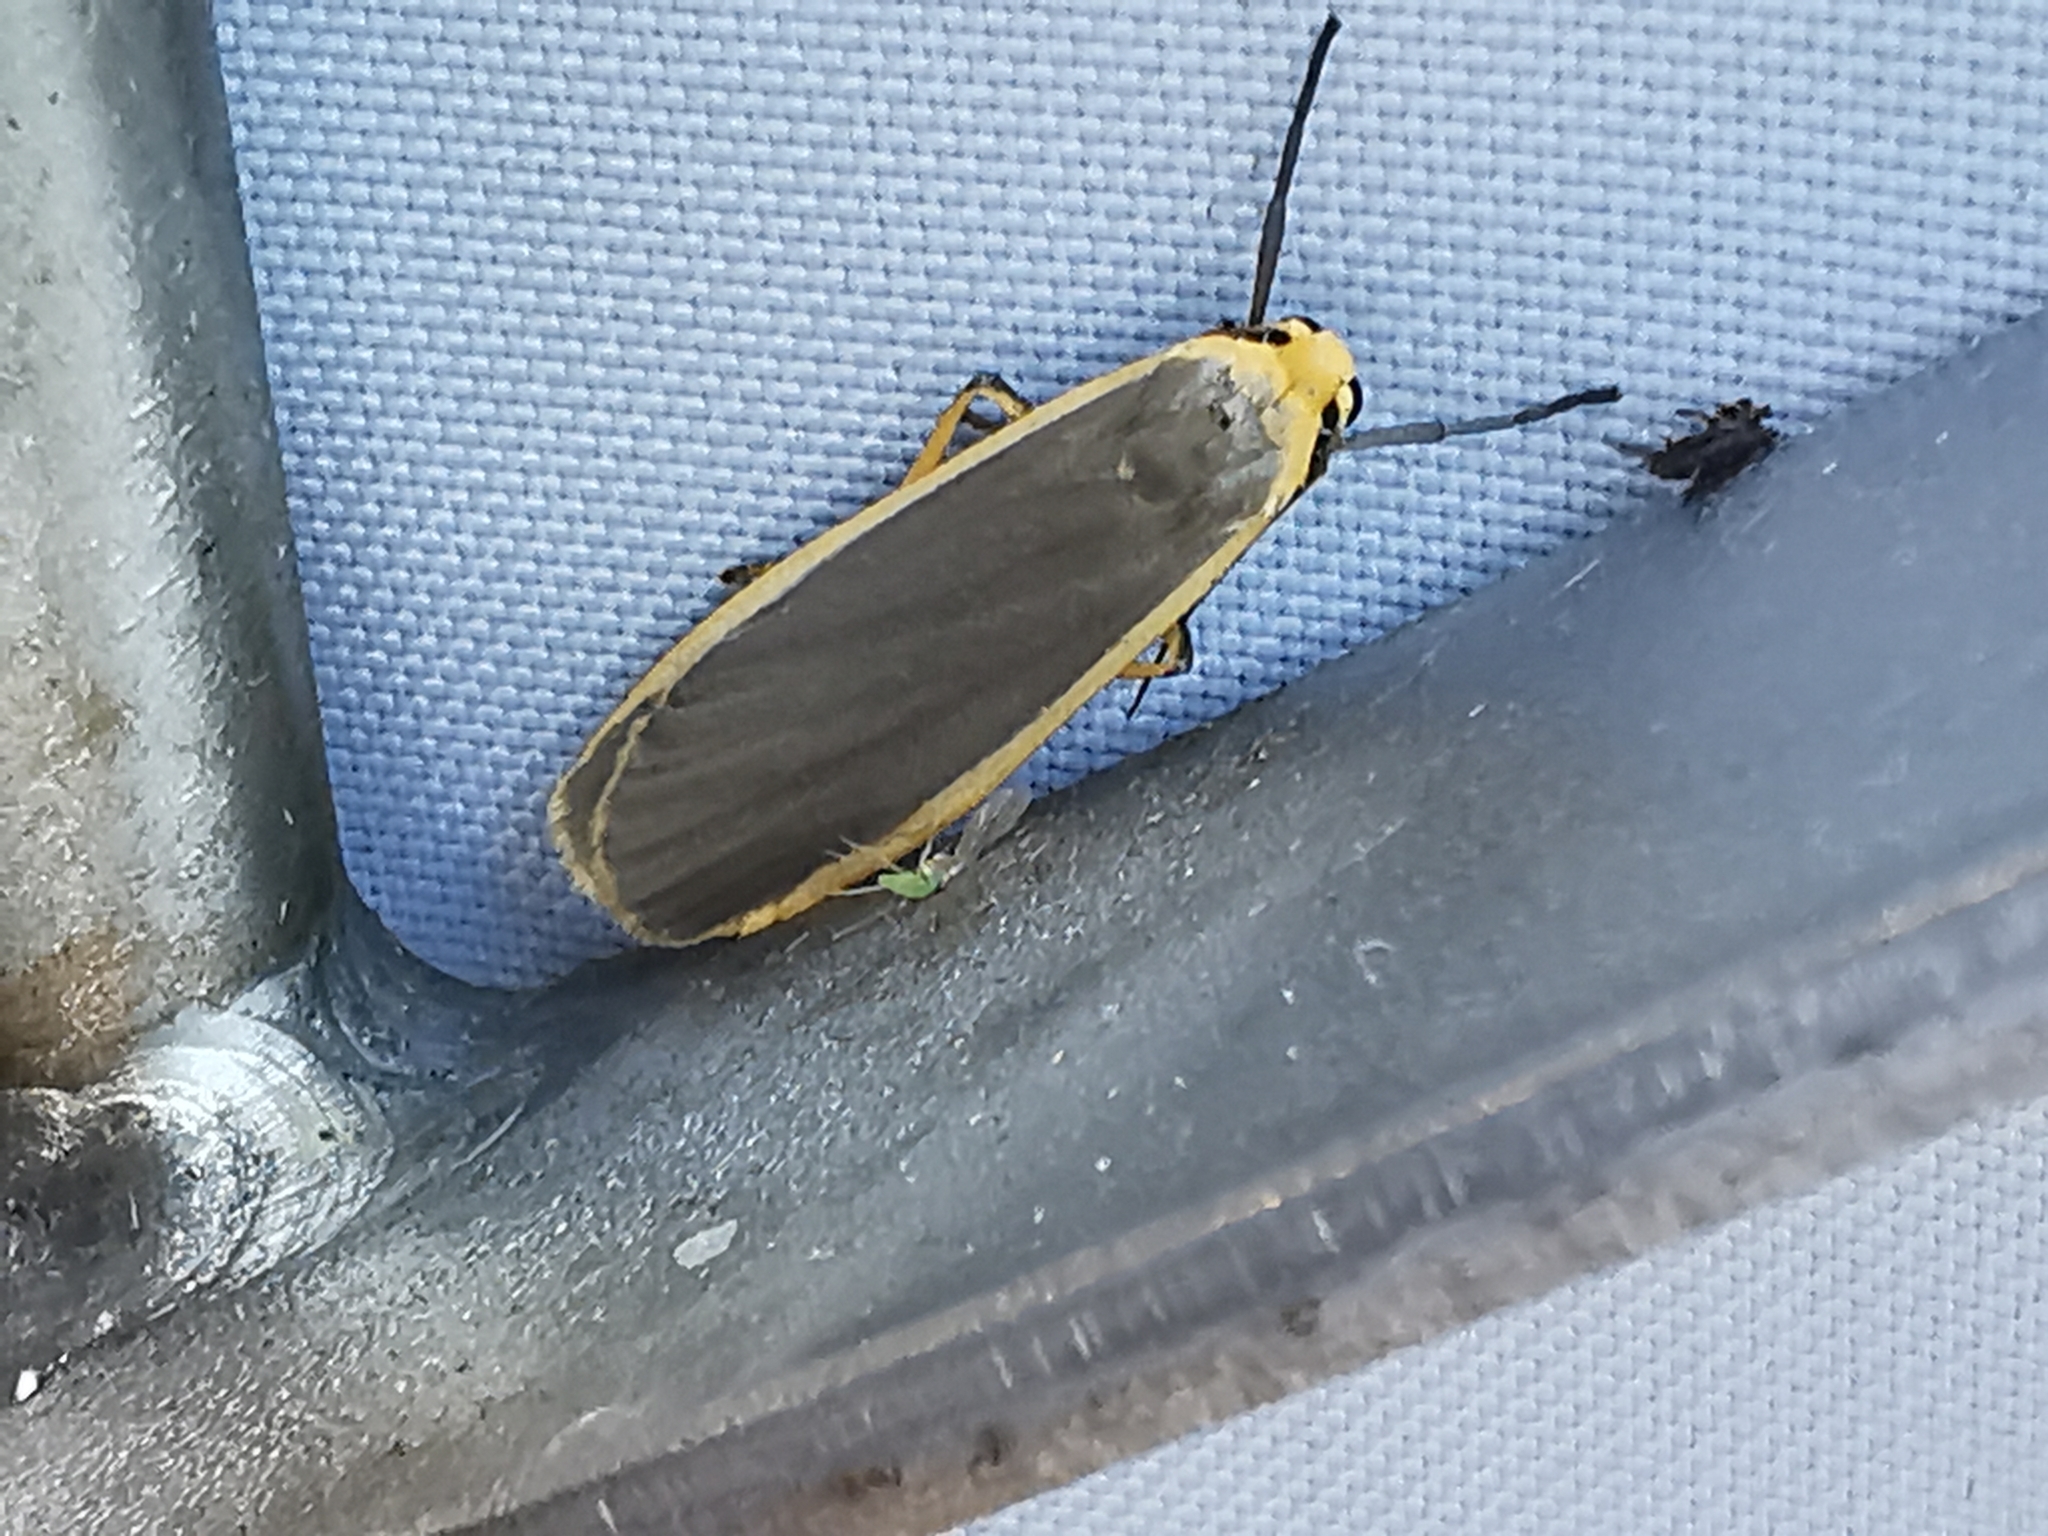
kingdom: Animalia
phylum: Arthropoda
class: Insecta
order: Lepidoptera
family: Erebidae
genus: Nyea
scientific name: Nyea lurideola
